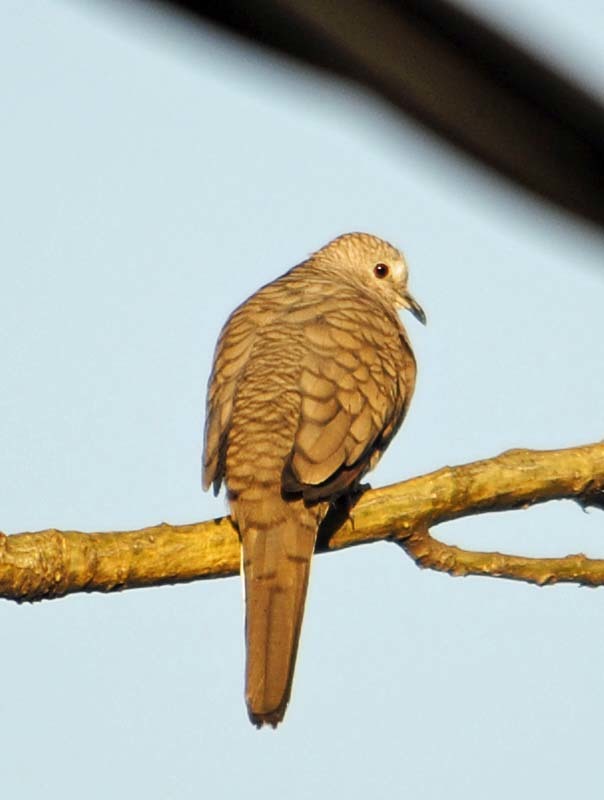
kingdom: Animalia
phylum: Chordata
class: Aves
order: Columbiformes
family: Columbidae
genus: Columbina
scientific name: Columbina inca
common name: Inca dove
